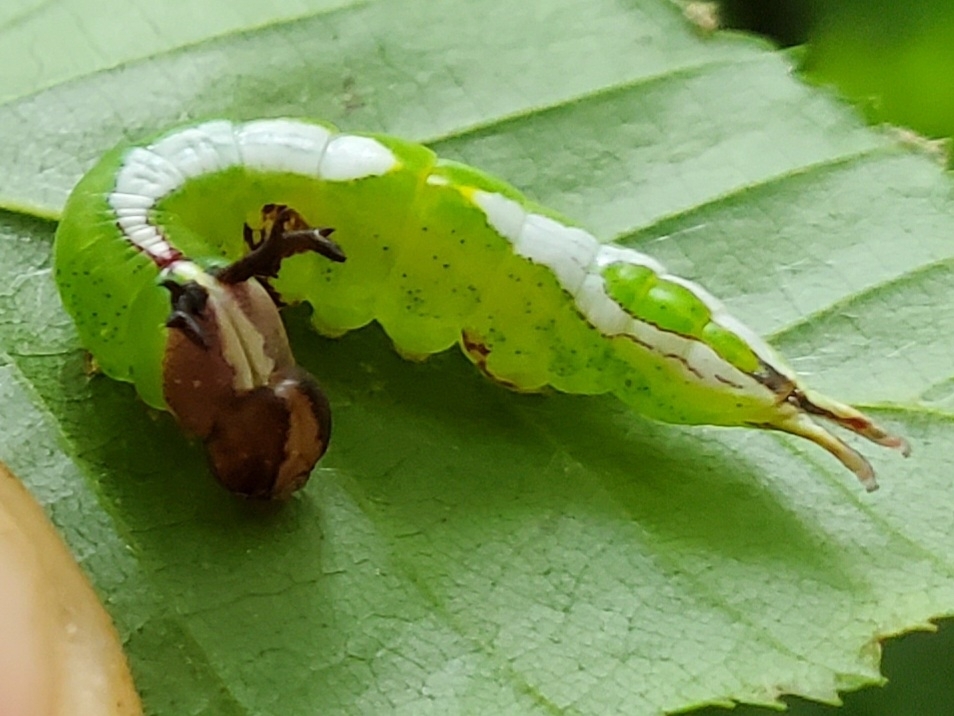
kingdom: Animalia
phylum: Arthropoda
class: Insecta
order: Lepidoptera
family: Notodontidae
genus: Disphragis
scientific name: Disphragis Cecrita biundata
